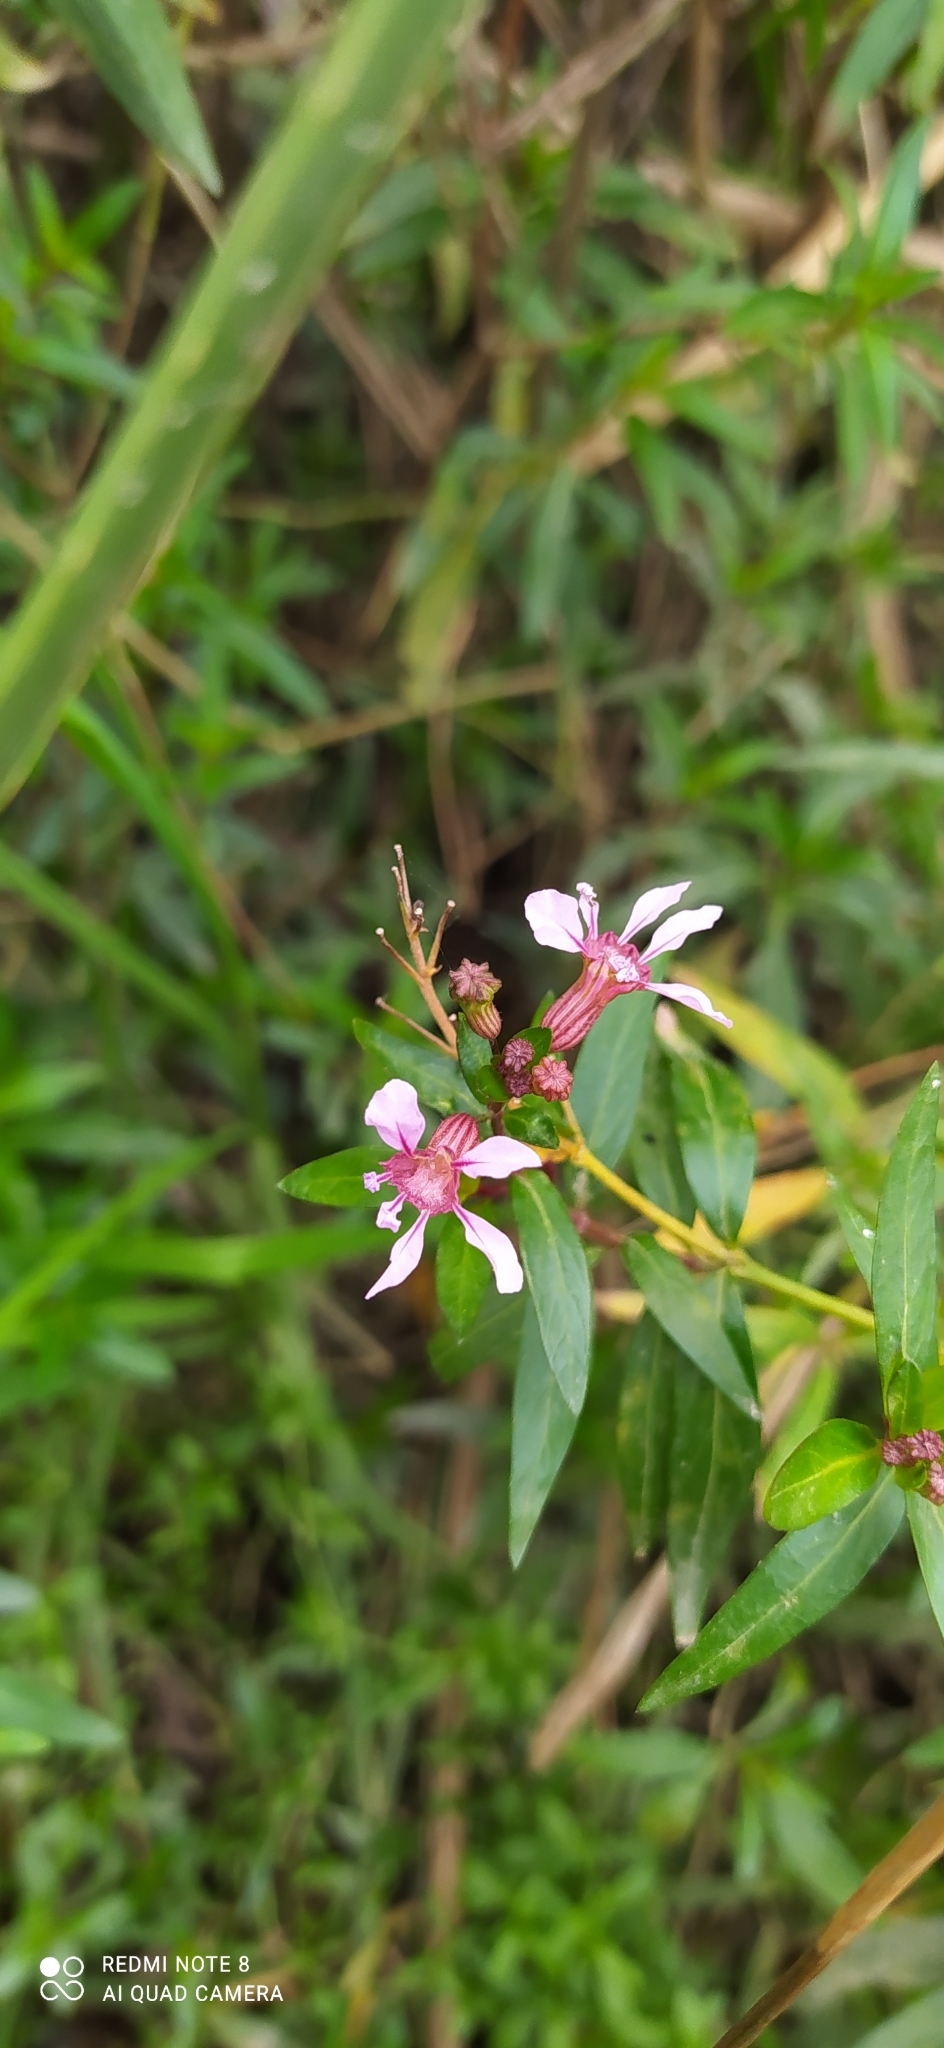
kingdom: Plantae
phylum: Tracheophyta
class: Magnoliopsida
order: Myrtales
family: Lythraceae
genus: Cuphea
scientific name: Cuphea fruticosa
